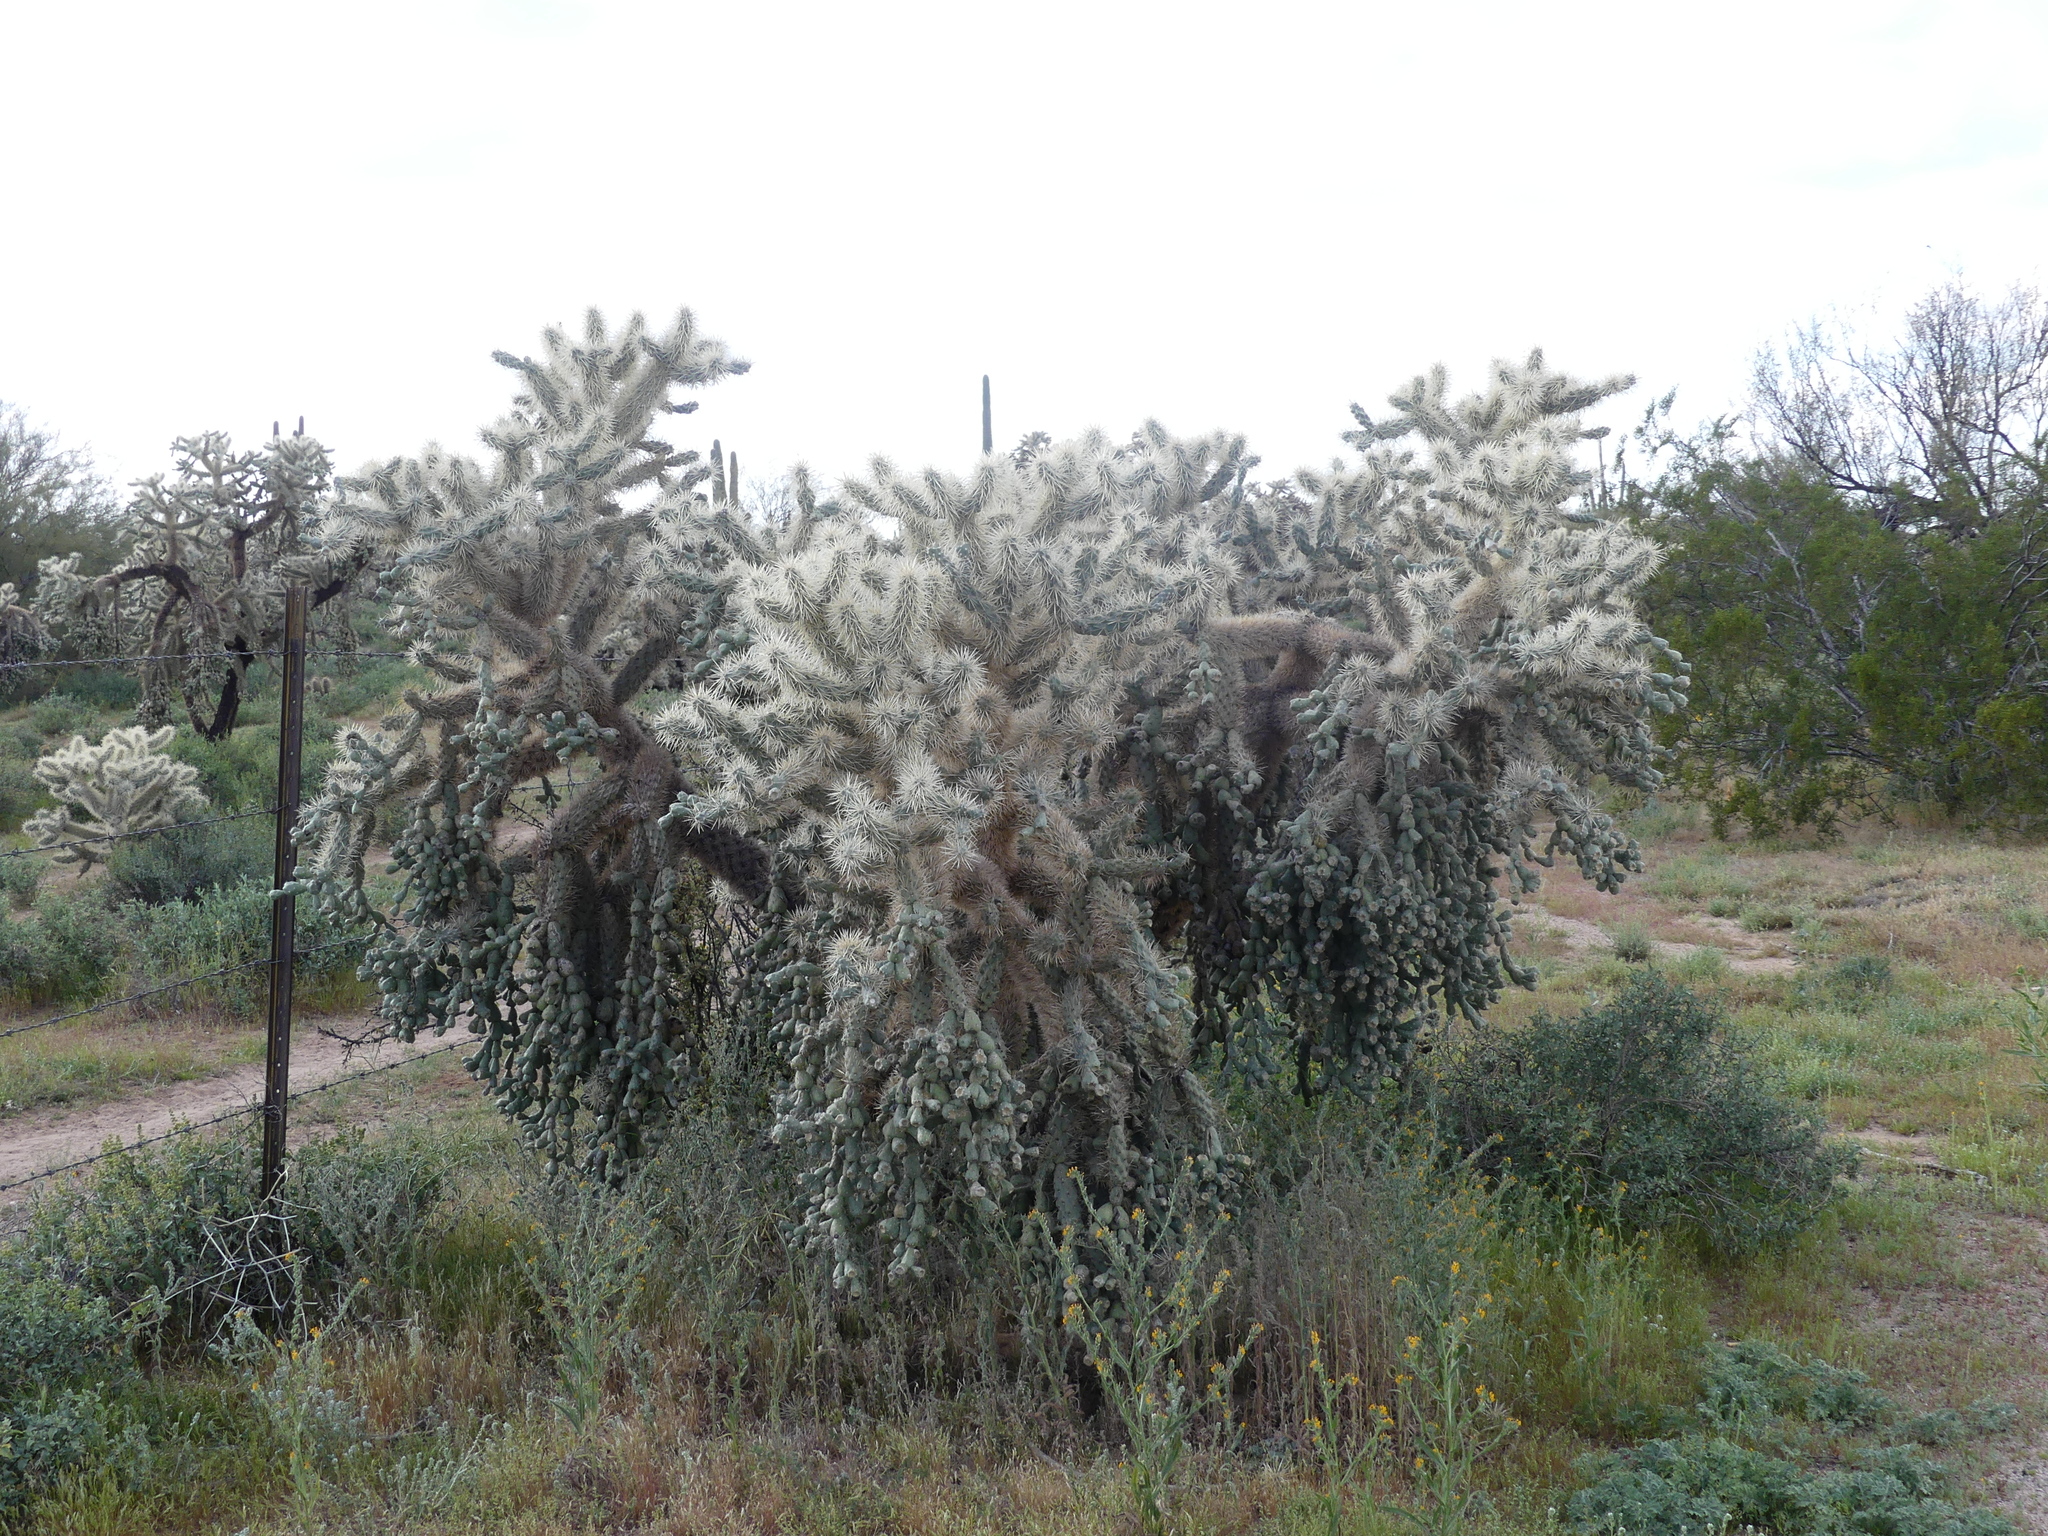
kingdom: Plantae
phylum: Tracheophyta
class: Magnoliopsida
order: Caryophyllales
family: Cactaceae
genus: Cylindropuntia
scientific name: Cylindropuntia fulgida
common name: Jumping cholla
